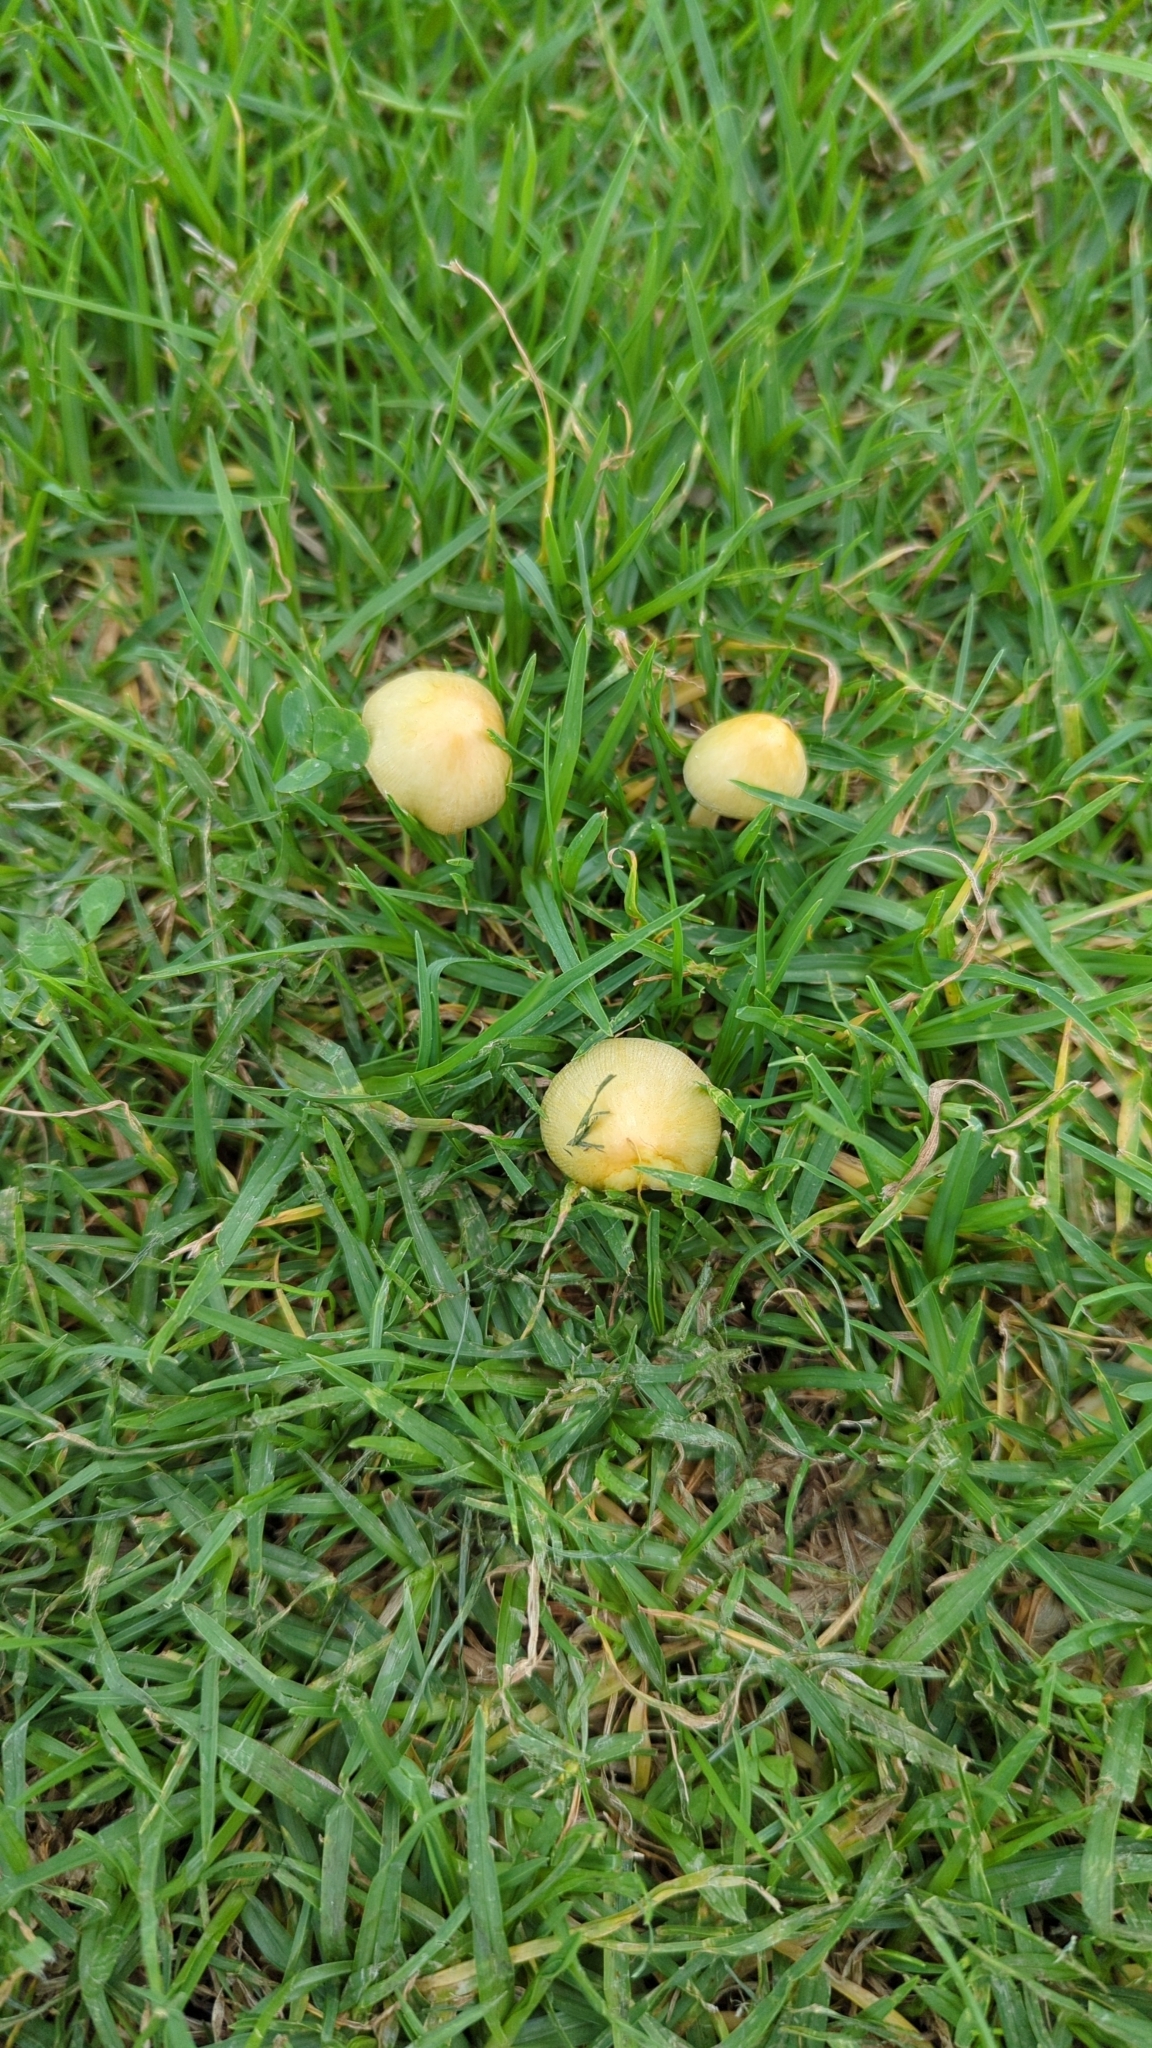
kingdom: Fungi
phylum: Basidiomycota
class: Agaricomycetes
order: Agaricales
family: Bolbitiaceae
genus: Bolbitius
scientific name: Bolbitius titubans
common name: Yellow fieldcap
